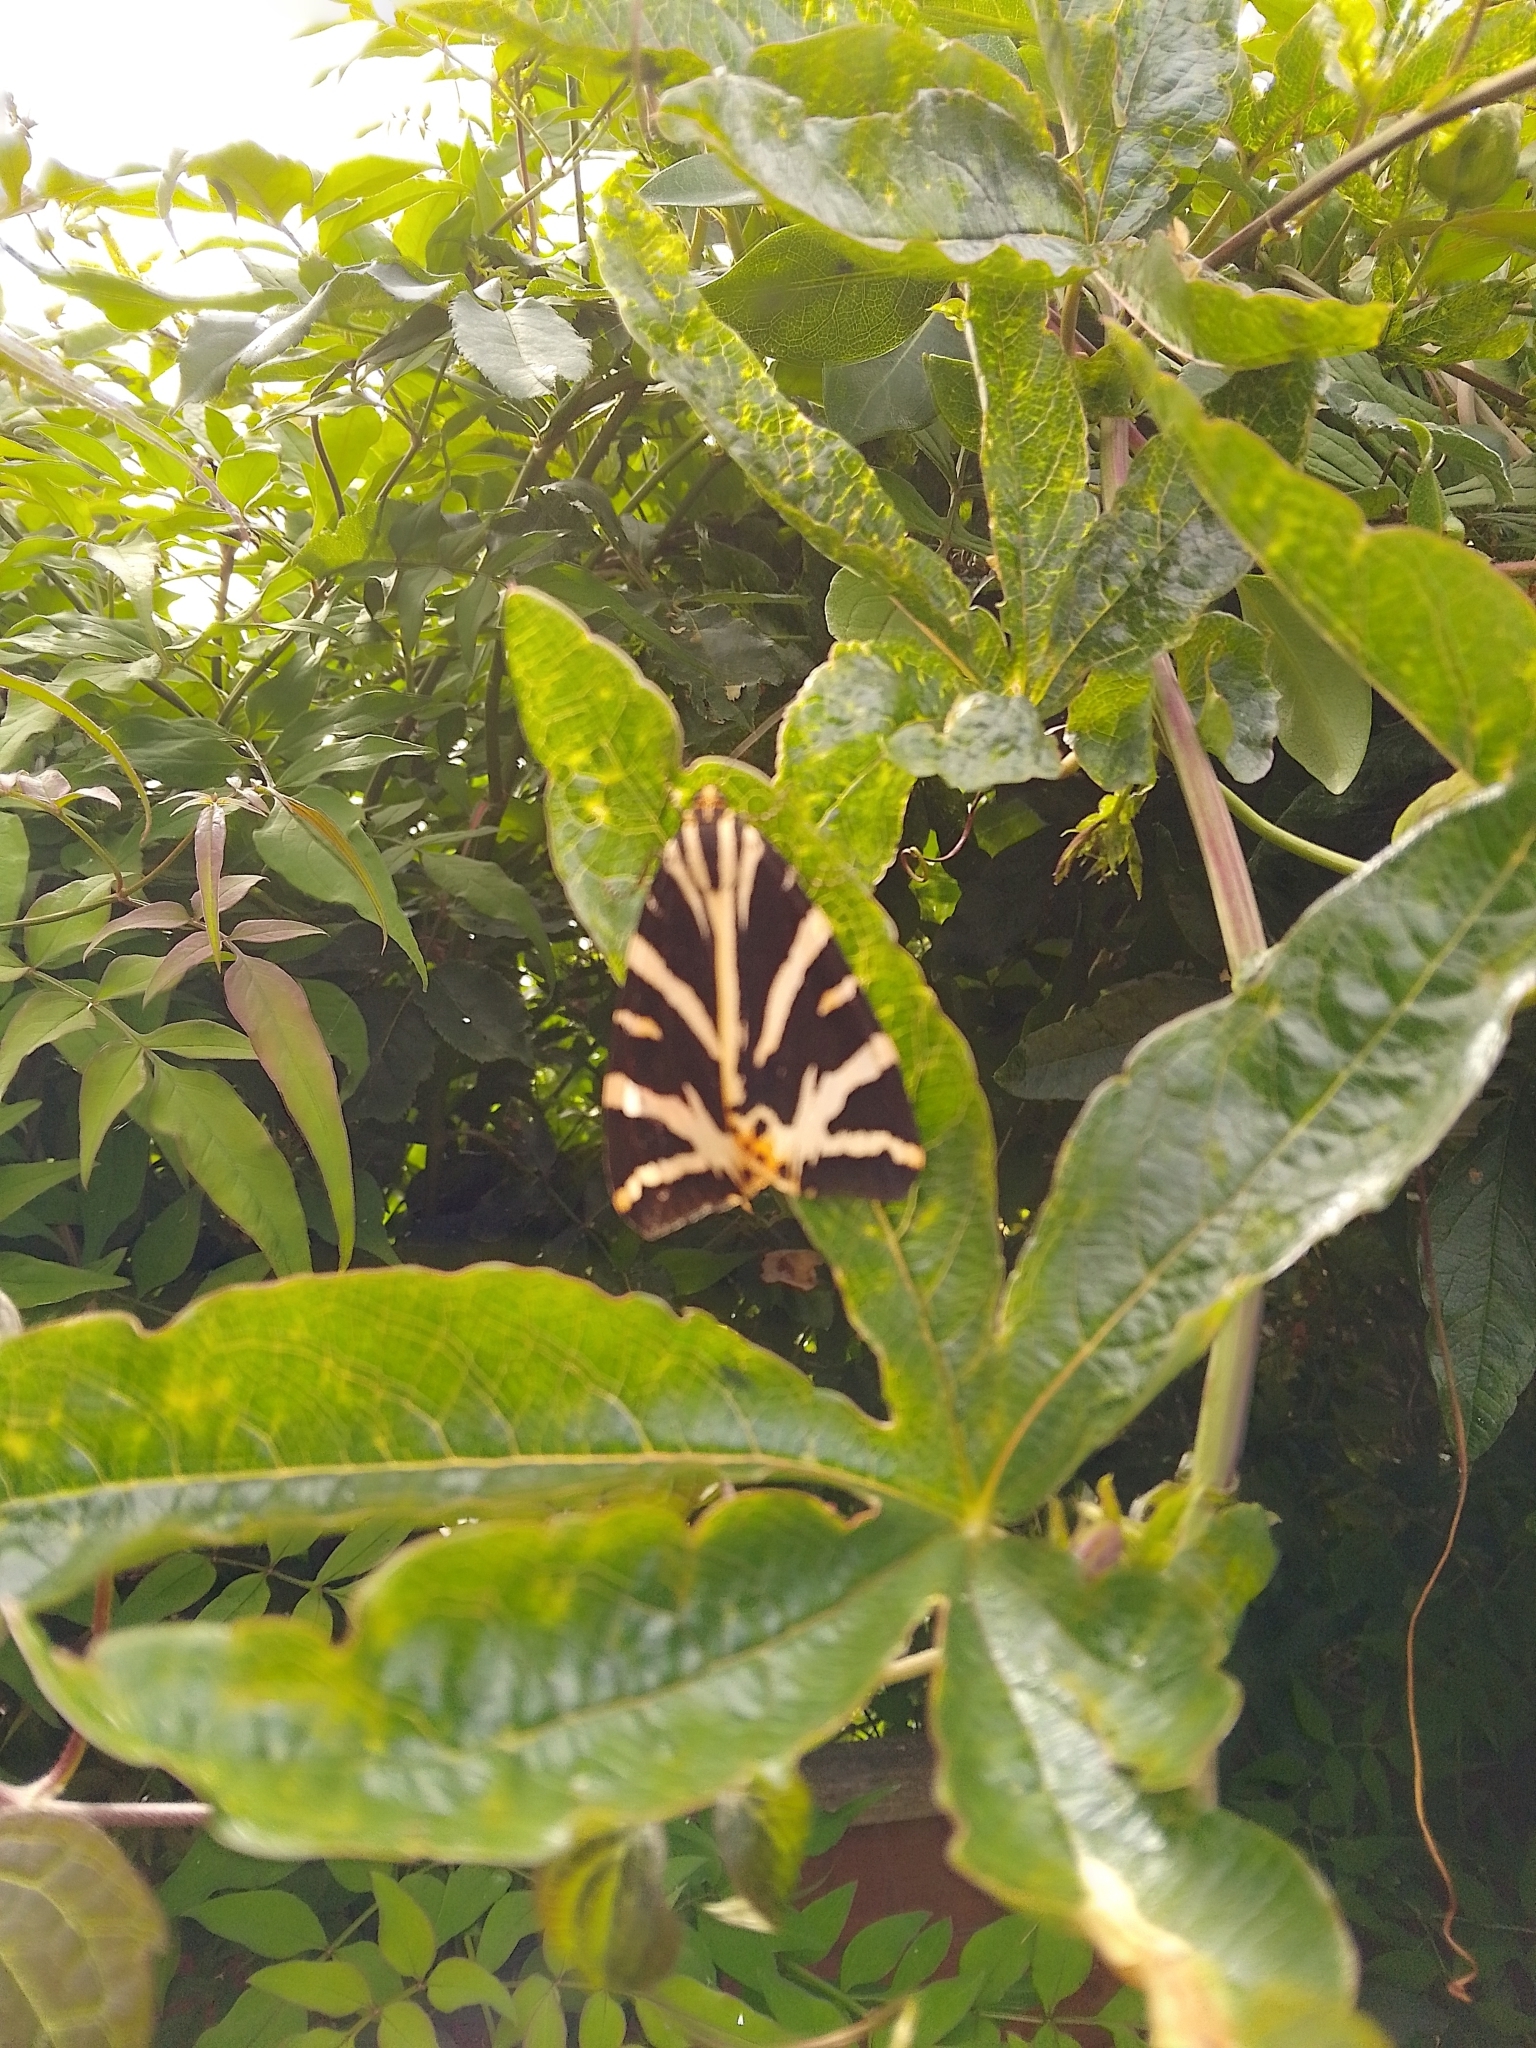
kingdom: Animalia
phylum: Arthropoda
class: Insecta
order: Lepidoptera
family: Erebidae
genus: Euplagia
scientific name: Euplagia quadripunctaria
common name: Jersey tiger
